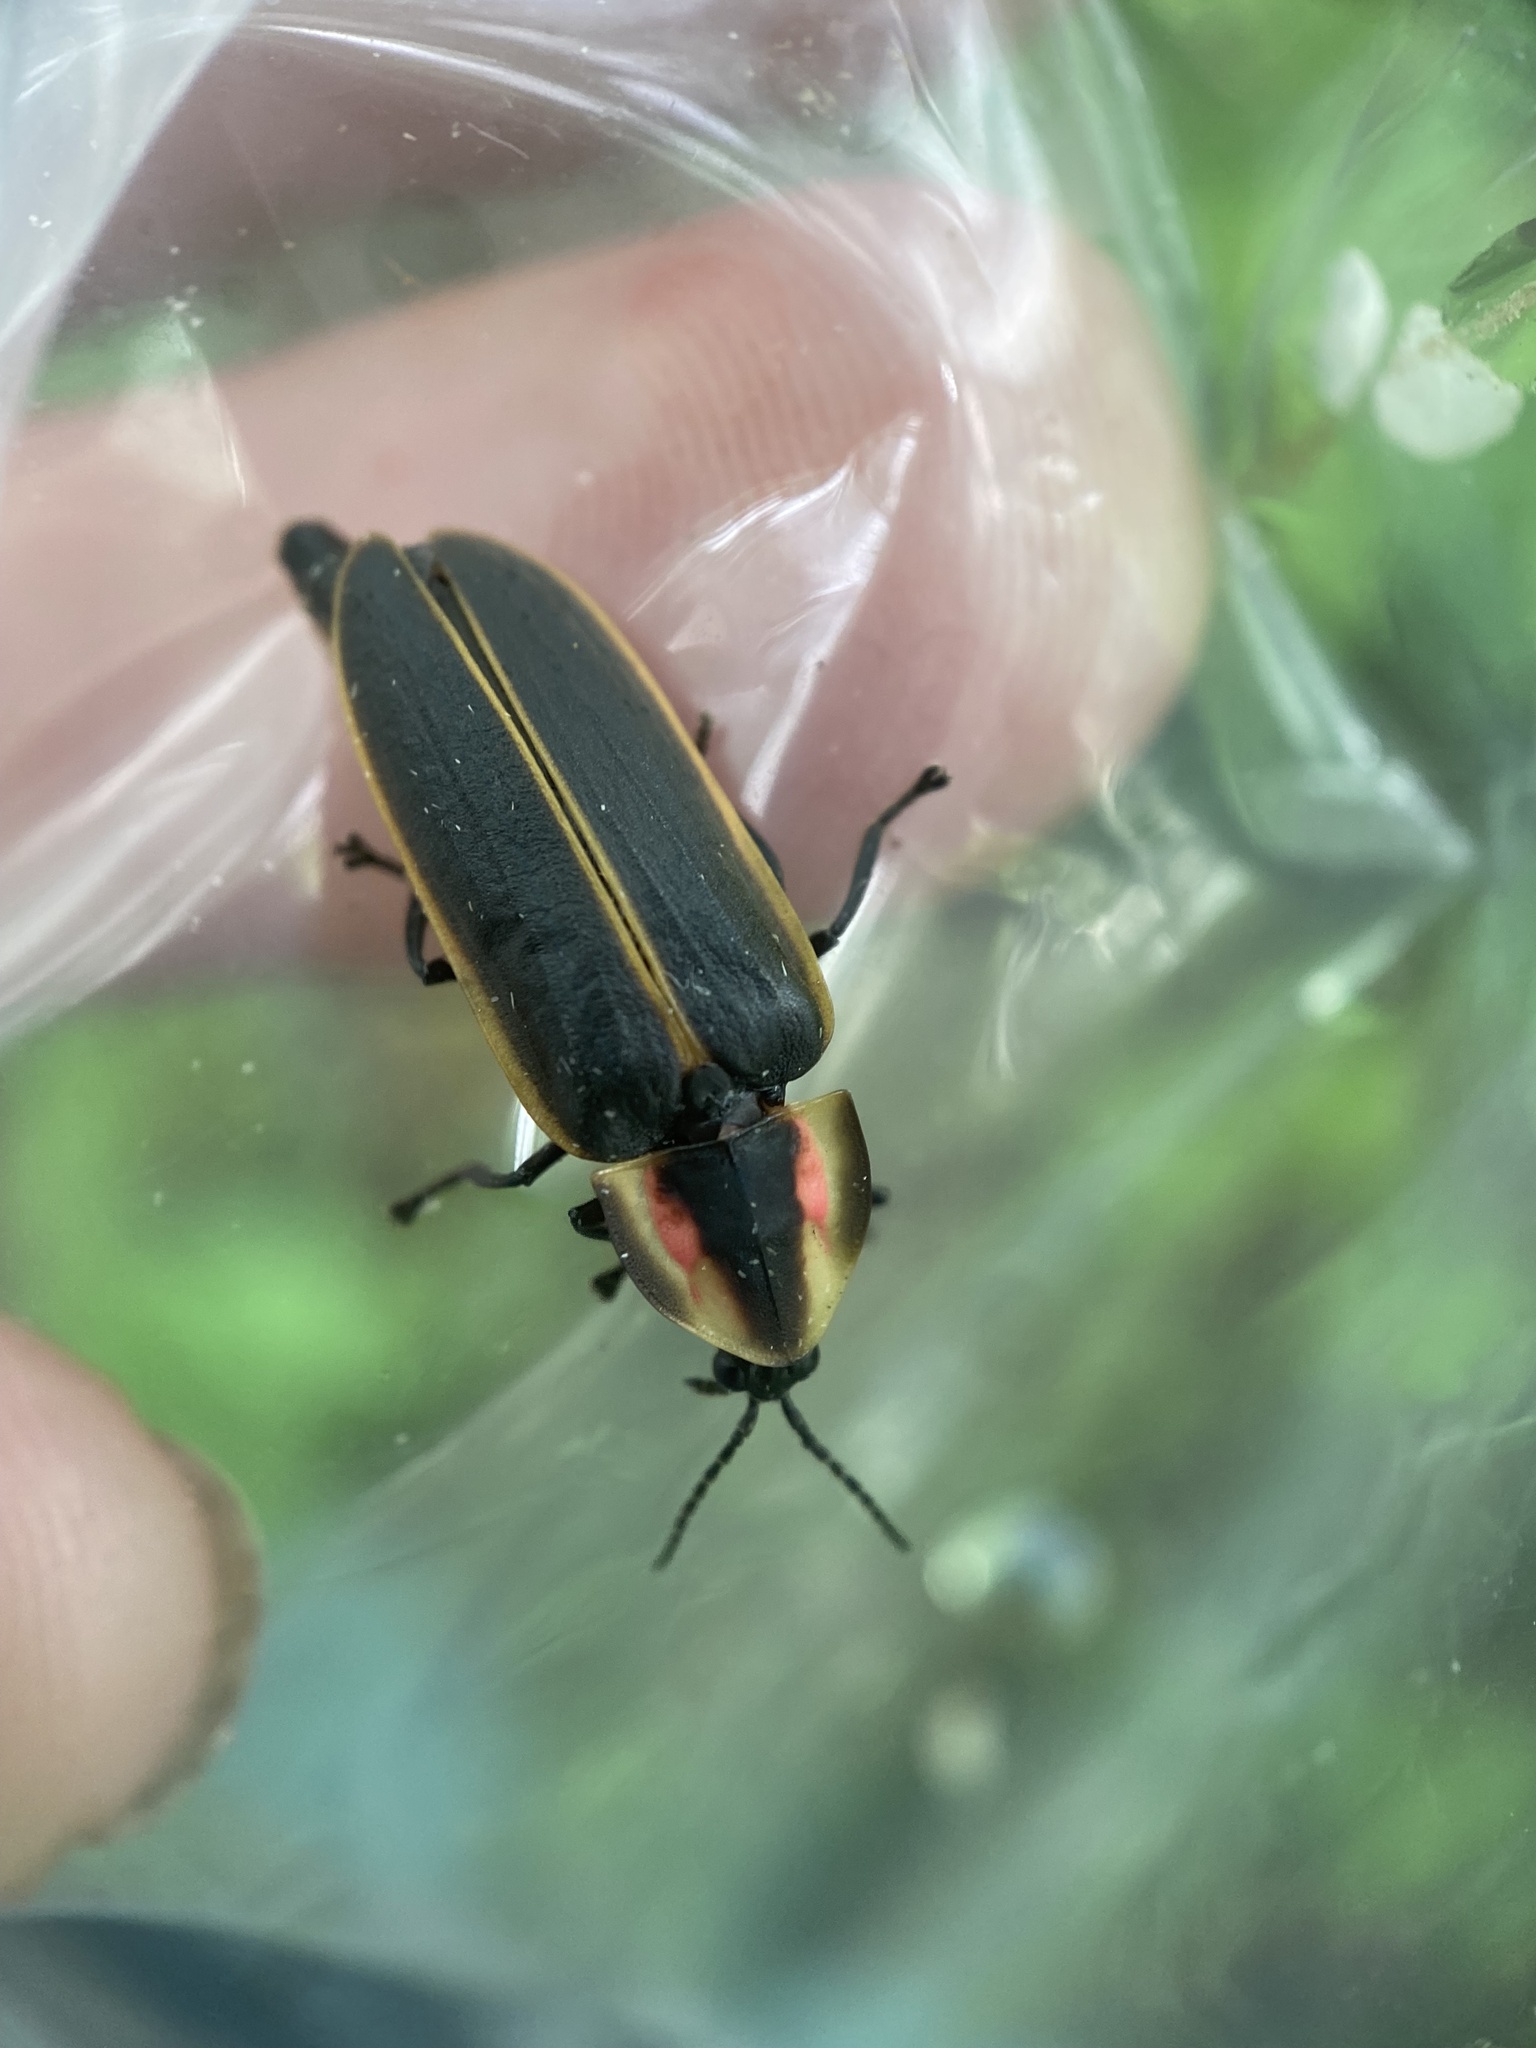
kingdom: Animalia
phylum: Arthropoda
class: Insecta
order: Coleoptera
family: Lampyridae
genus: Pyractomena
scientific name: Pyractomena borealis
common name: Northern firefly
